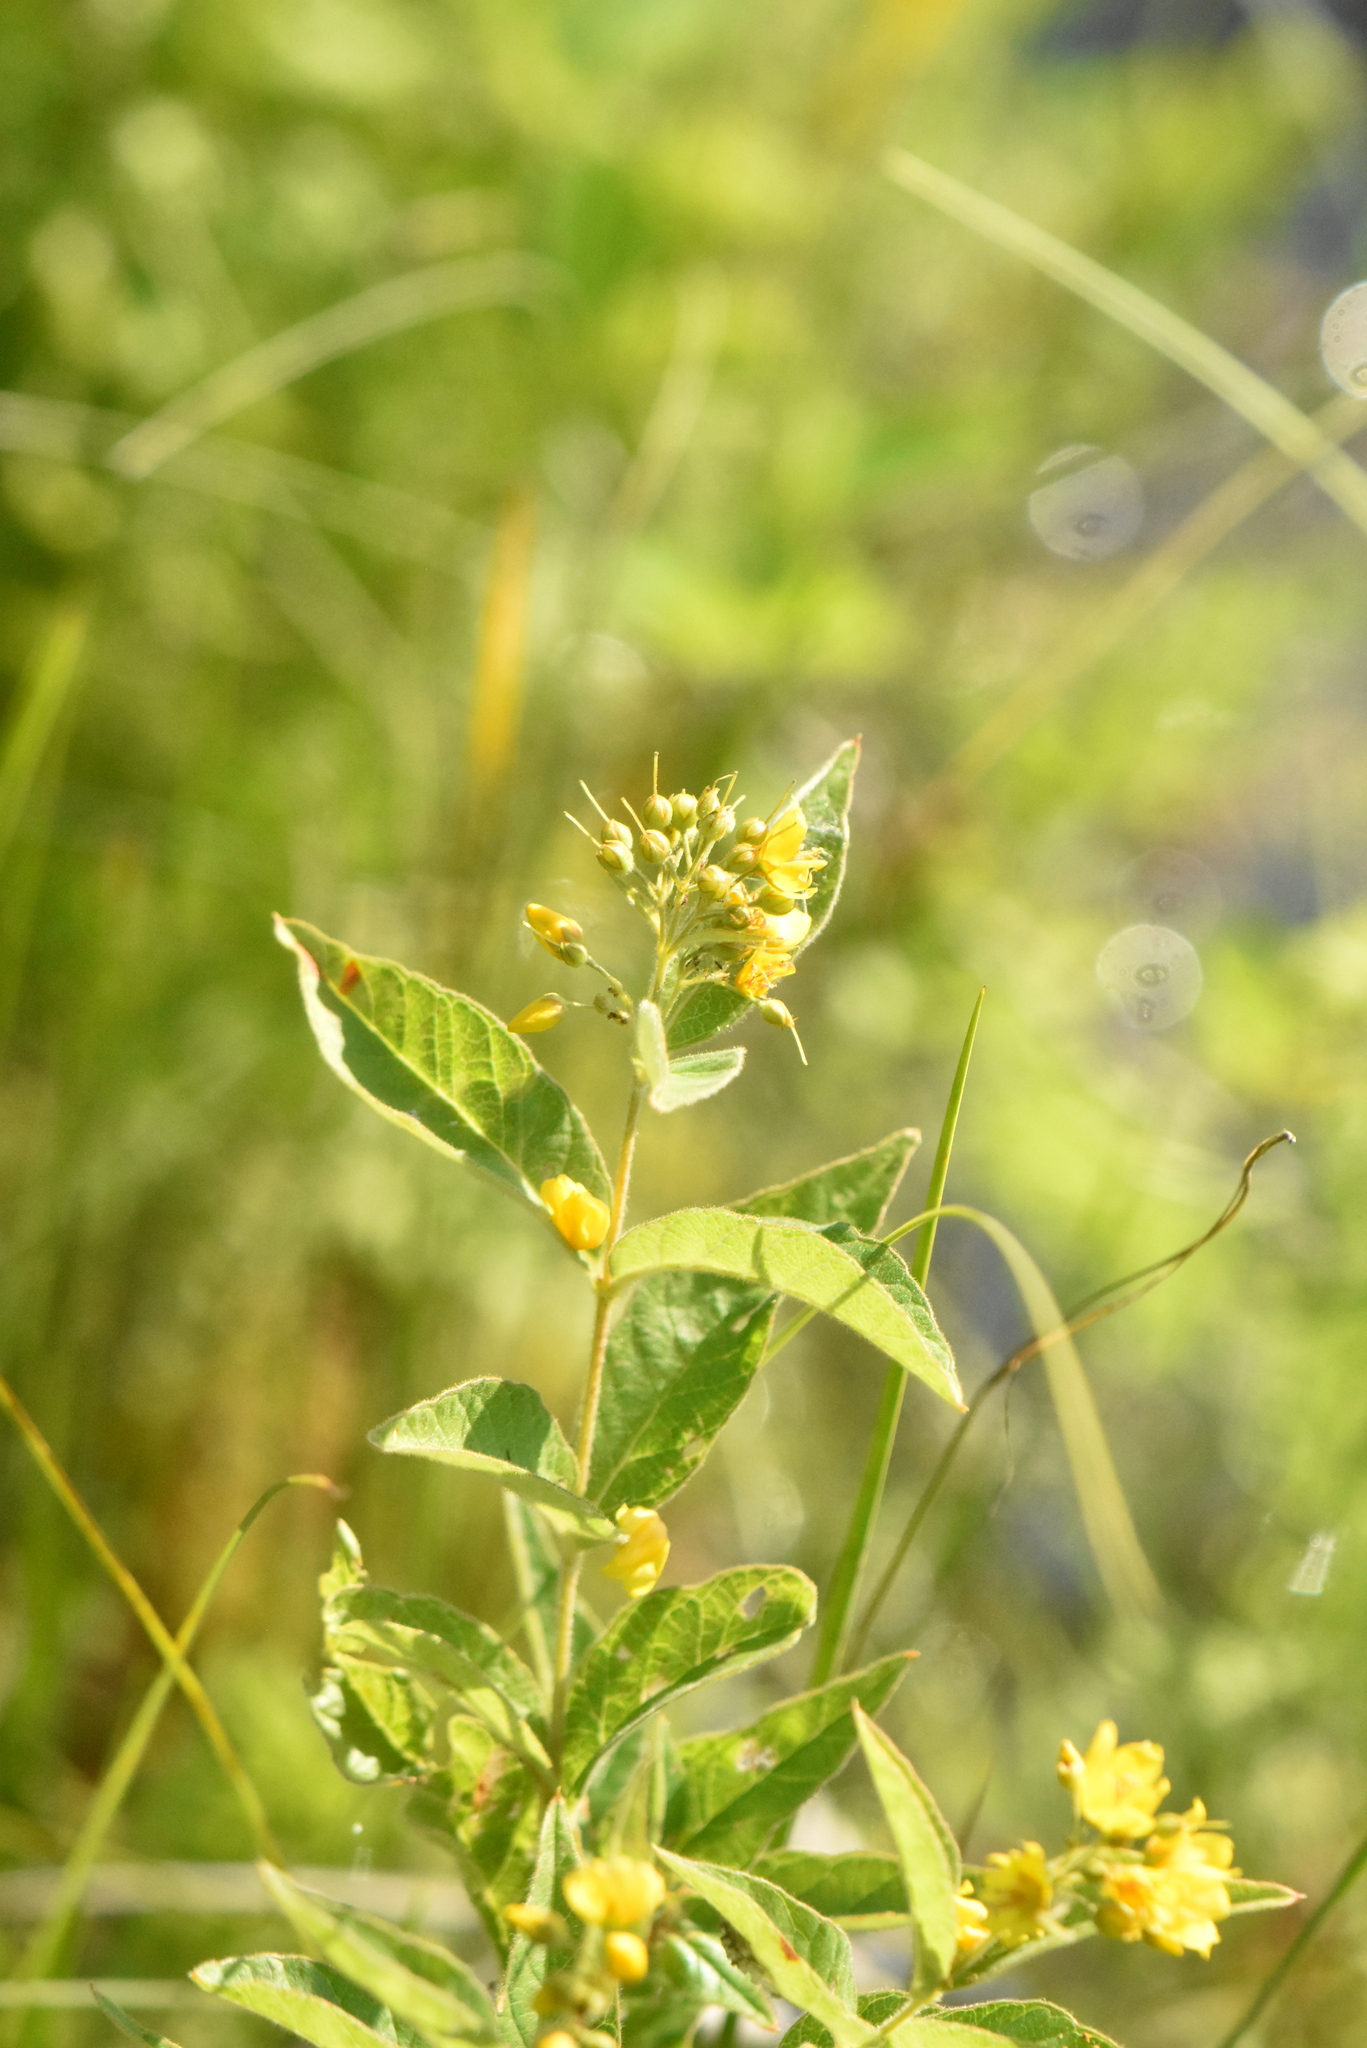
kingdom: Plantae
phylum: Tracheophyta
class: Magnoliopsida
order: Ericales
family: Primulaceae
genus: Lysimachia
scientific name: Lysimachia vulgaris
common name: Yellow loosestrife
